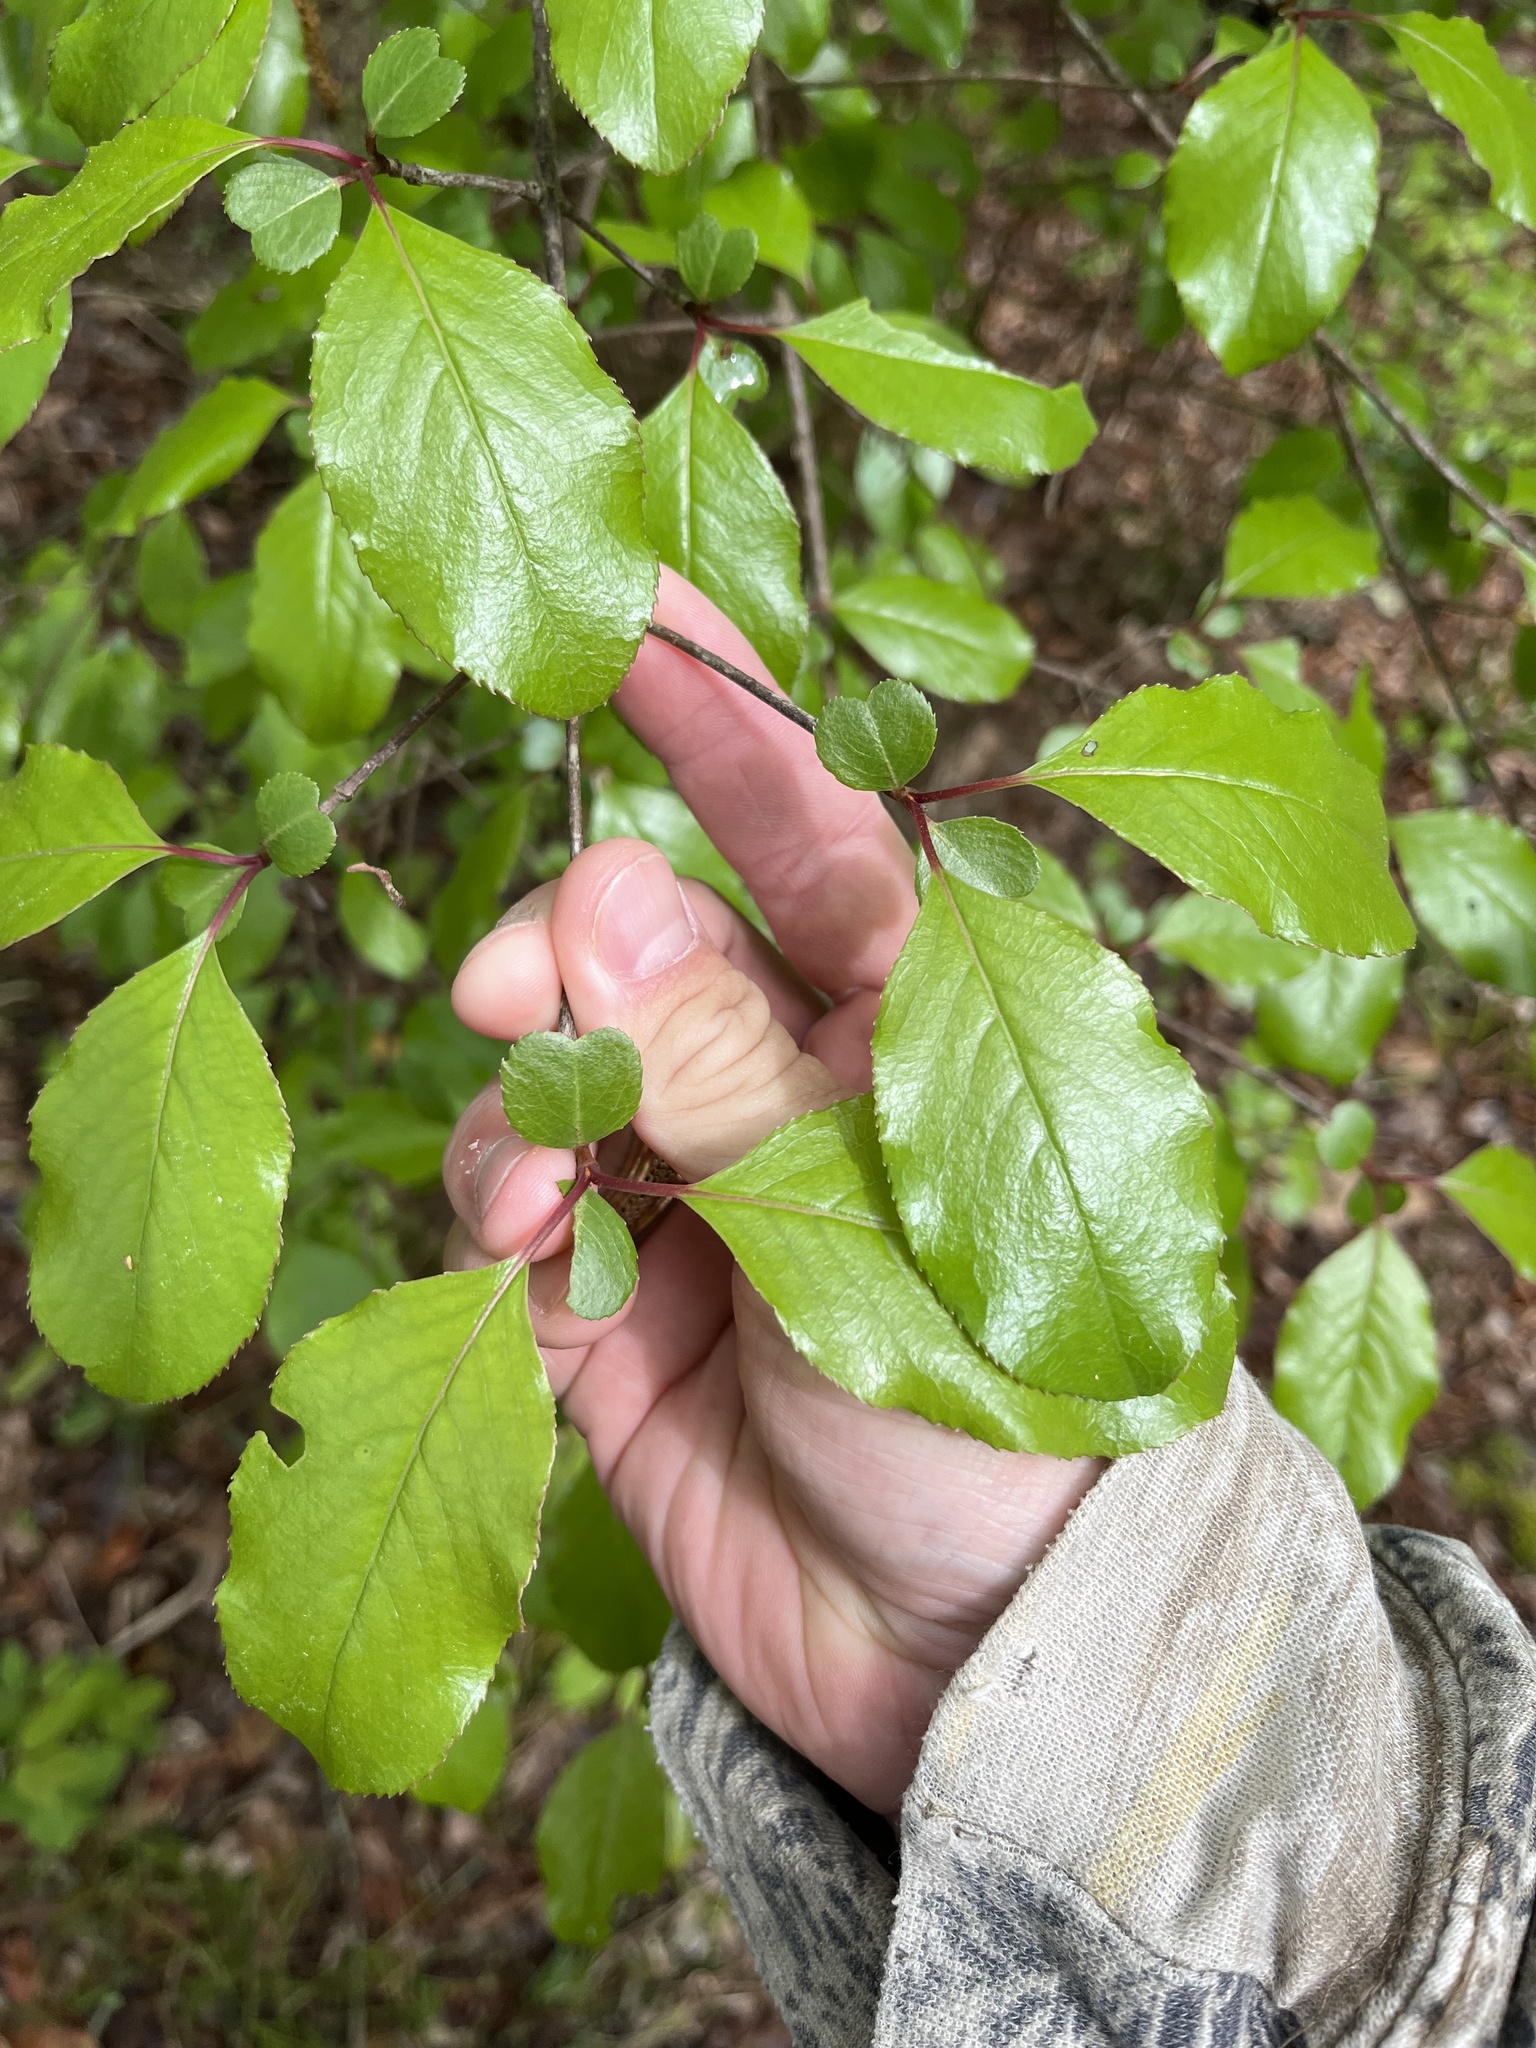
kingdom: Plantae
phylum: Tracheophyta
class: Magnoliopsida
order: Dipsacales
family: Viburnaceae
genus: Viburnum
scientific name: Viburnum rufidulum
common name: Blue haw
